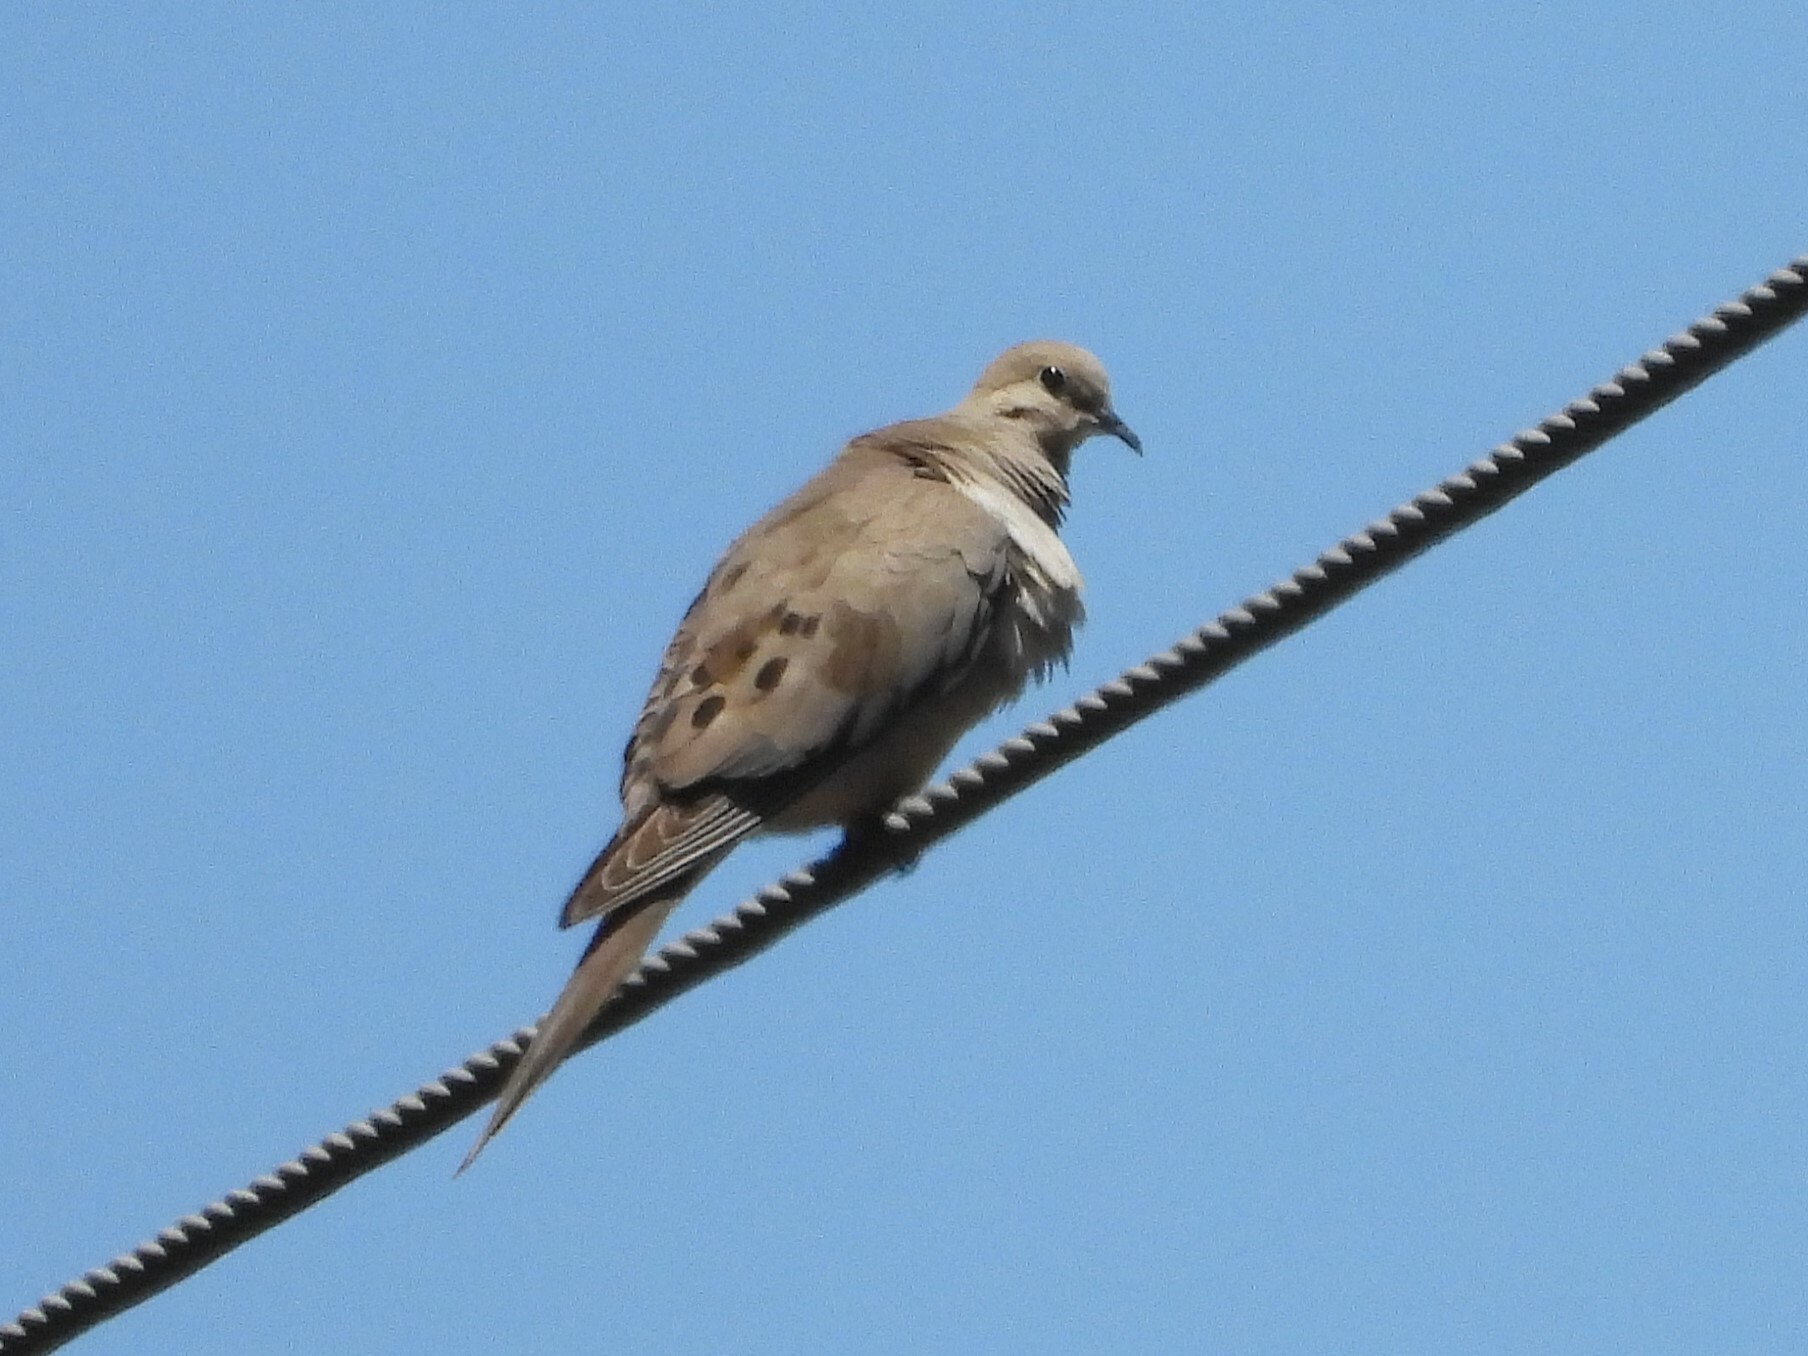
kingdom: Animalia
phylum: Chordata
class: Aves
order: Columbiformes
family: Columbidae
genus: Zenaida
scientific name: Zenaida macroura
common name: Mourning dove
